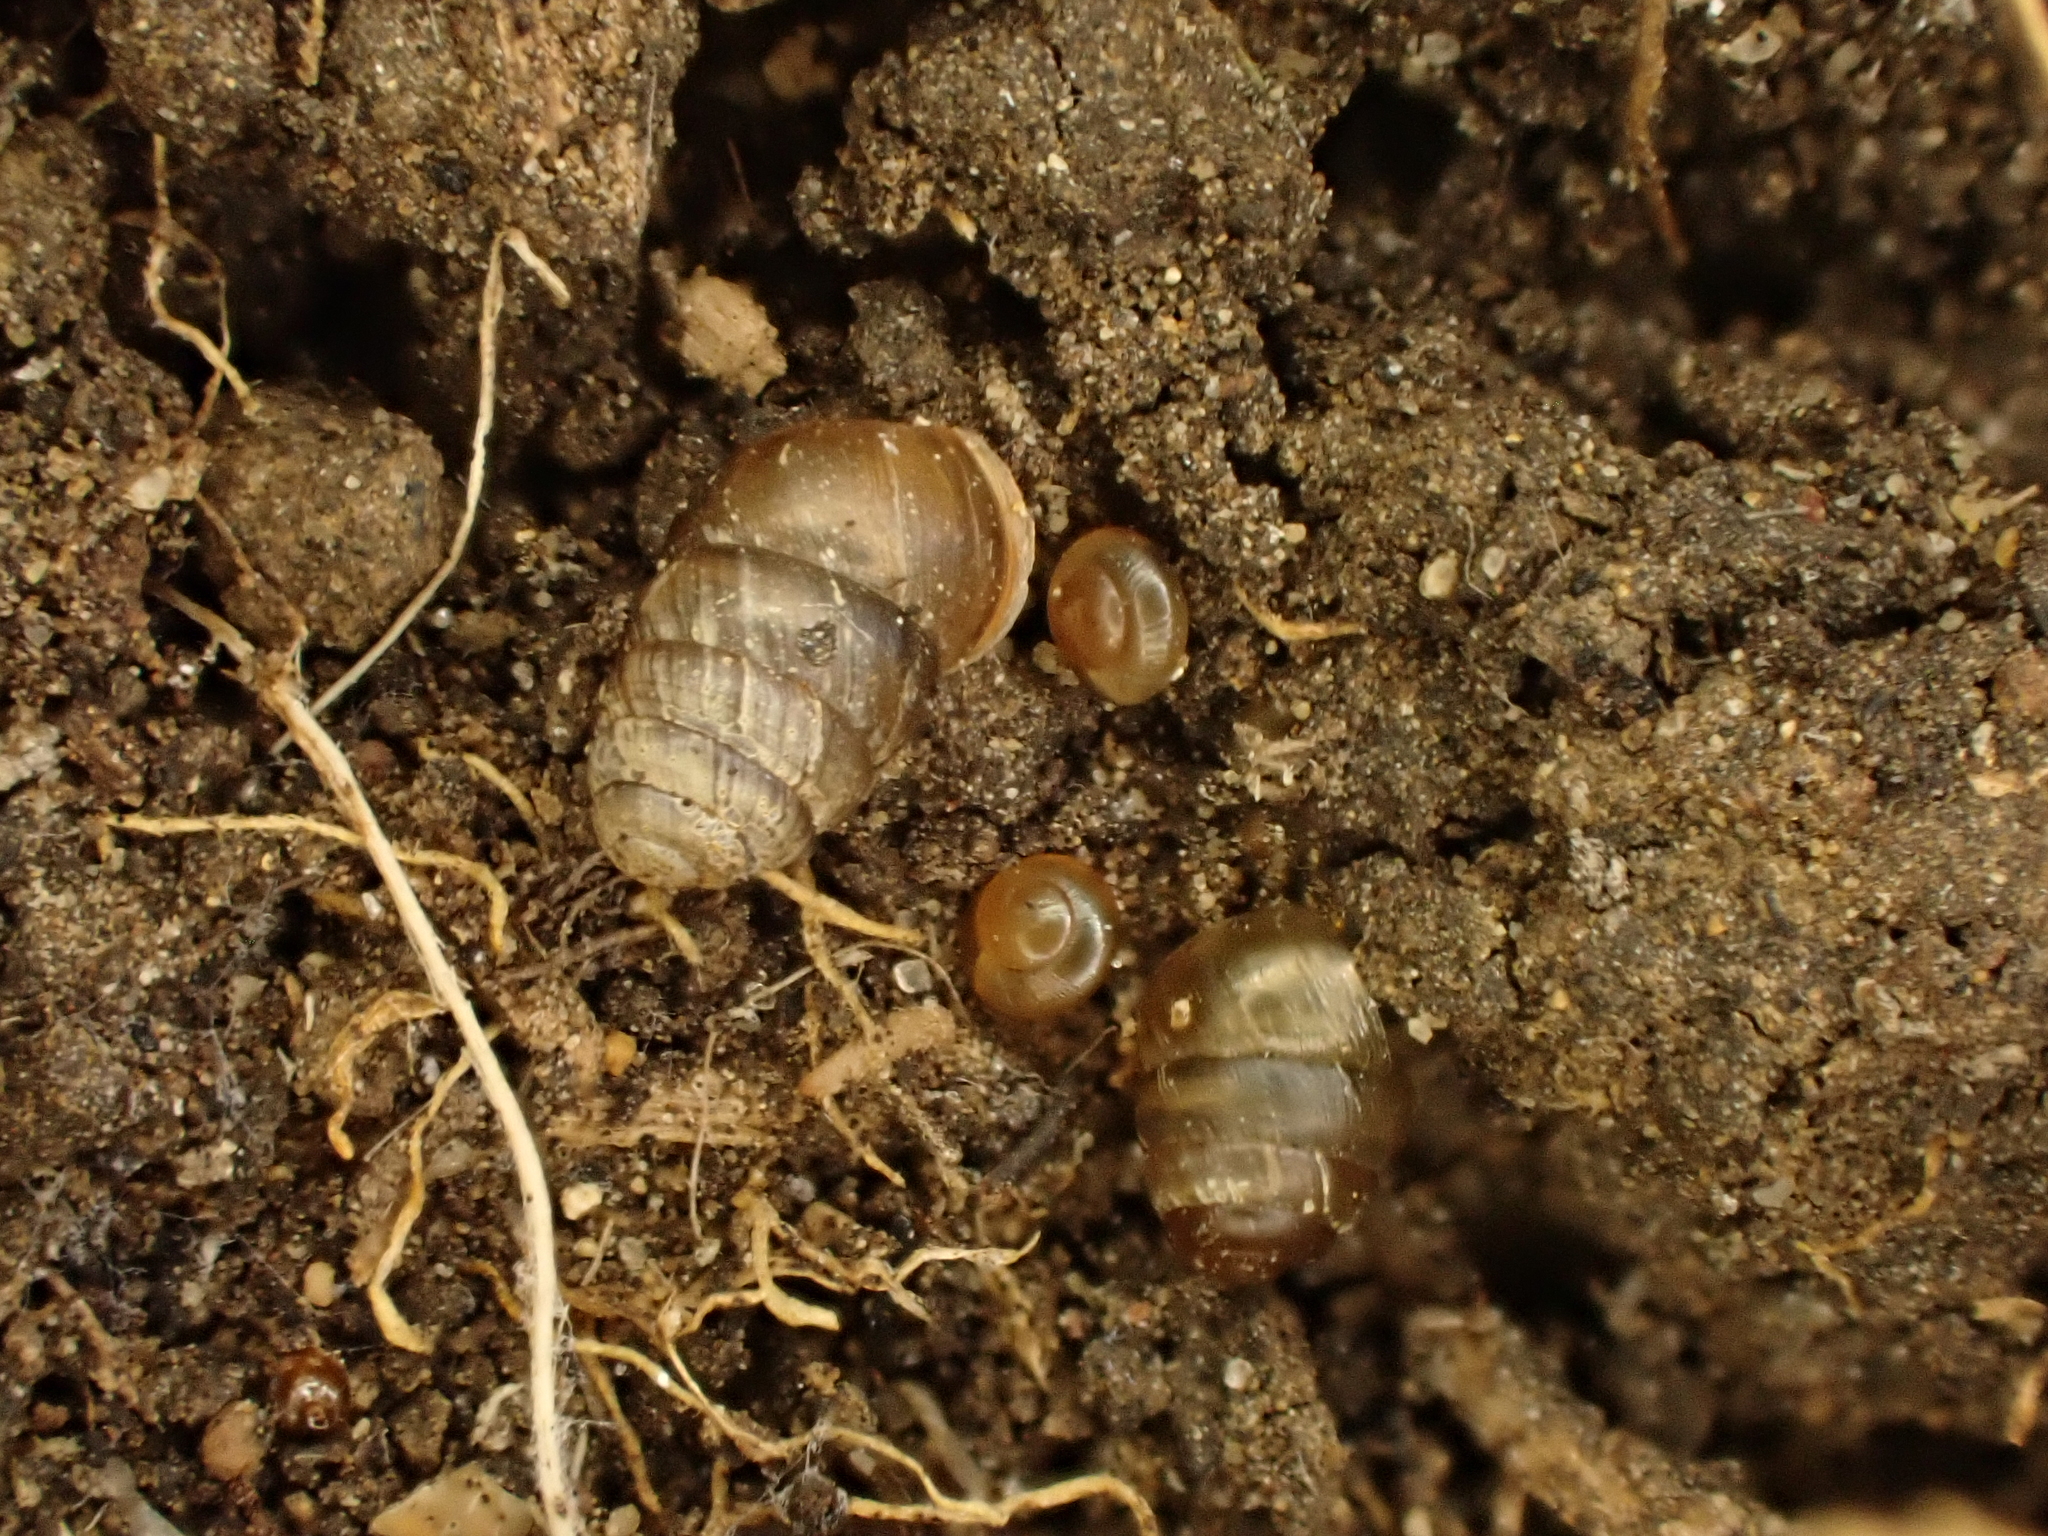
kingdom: Animalia
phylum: Mollusca
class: Gastropoda
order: Stylommatophora
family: Lauriidae
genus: Lauria
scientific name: Lauria cylindracea
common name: Common chrysalis snail
